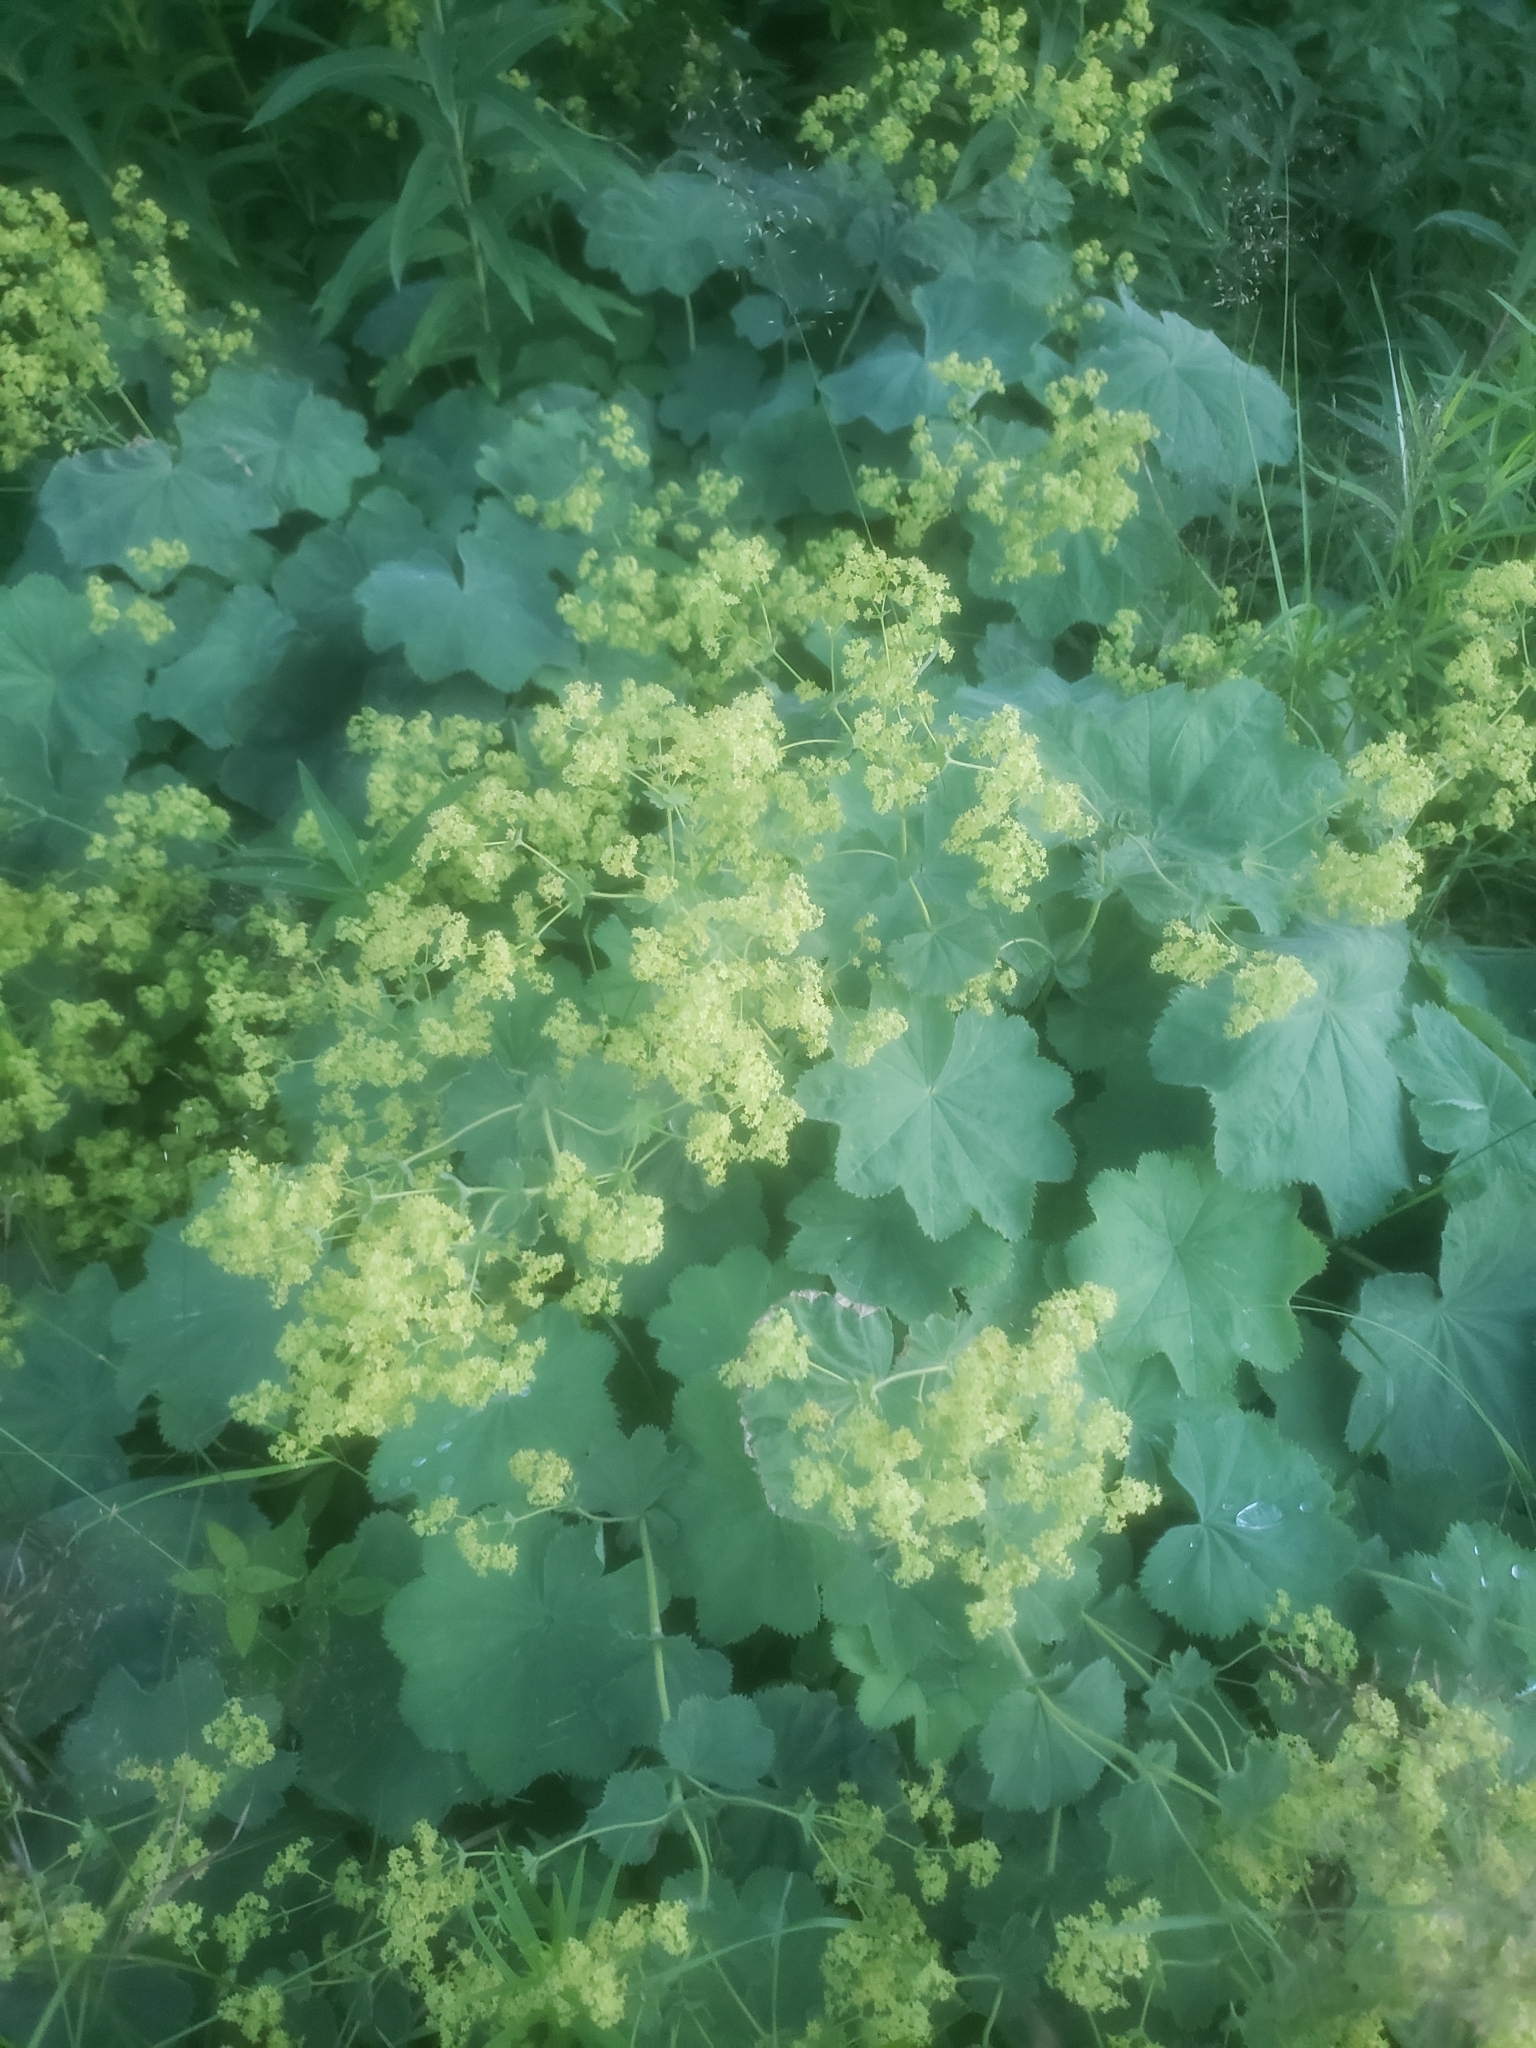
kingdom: Plantae
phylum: Tracheophyta
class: Magnoliopsida
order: Rosales
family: Rosaceae
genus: Alchemilla
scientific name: Alchemilla mollis
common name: Lady's-mantle
